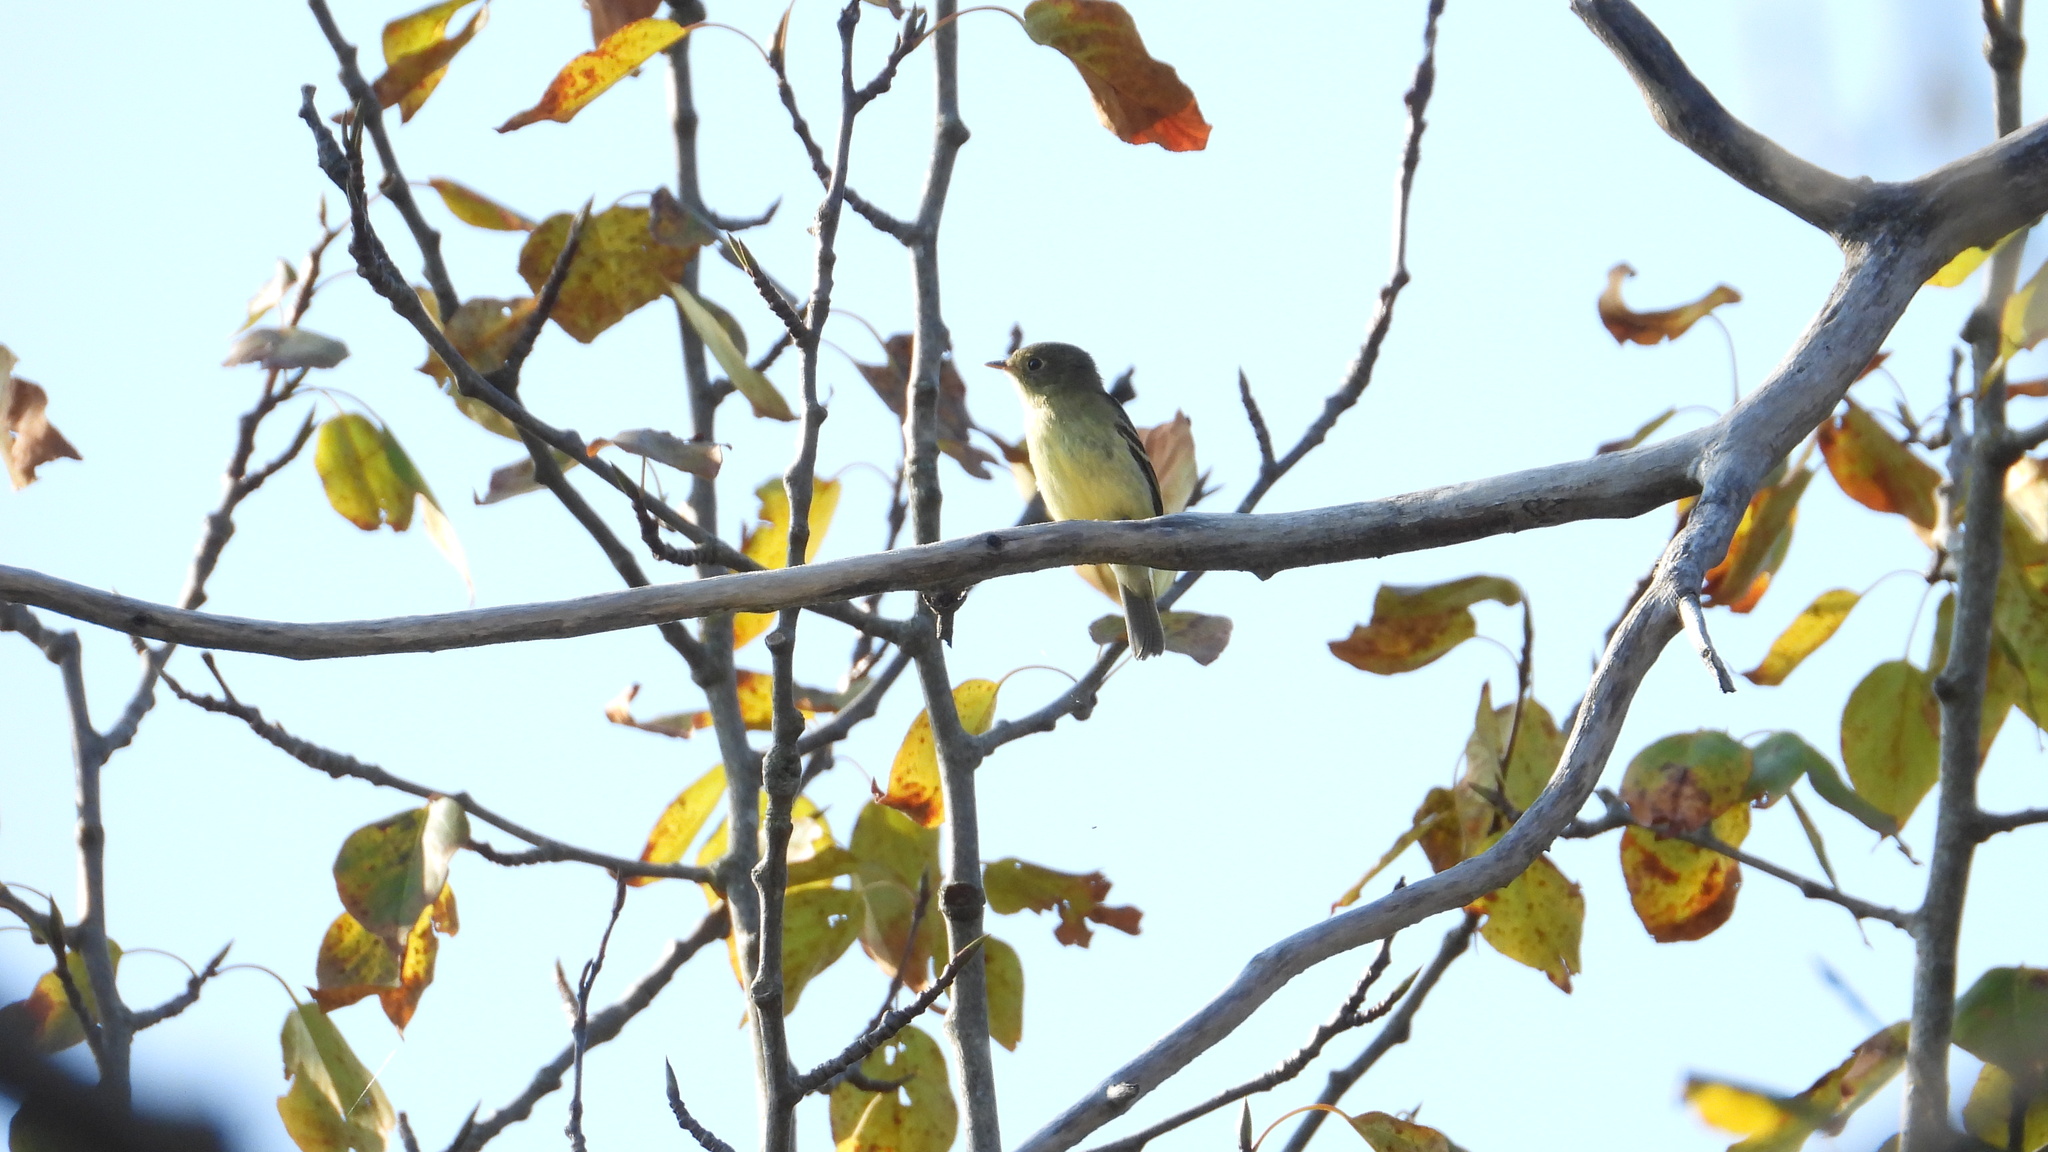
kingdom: Animalia
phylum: Chordata
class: Aves
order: Passeriformes
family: Tyrannidae
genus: Empidonax
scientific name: Empidonax flaviventris
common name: Yellow-bellied flycatcher
